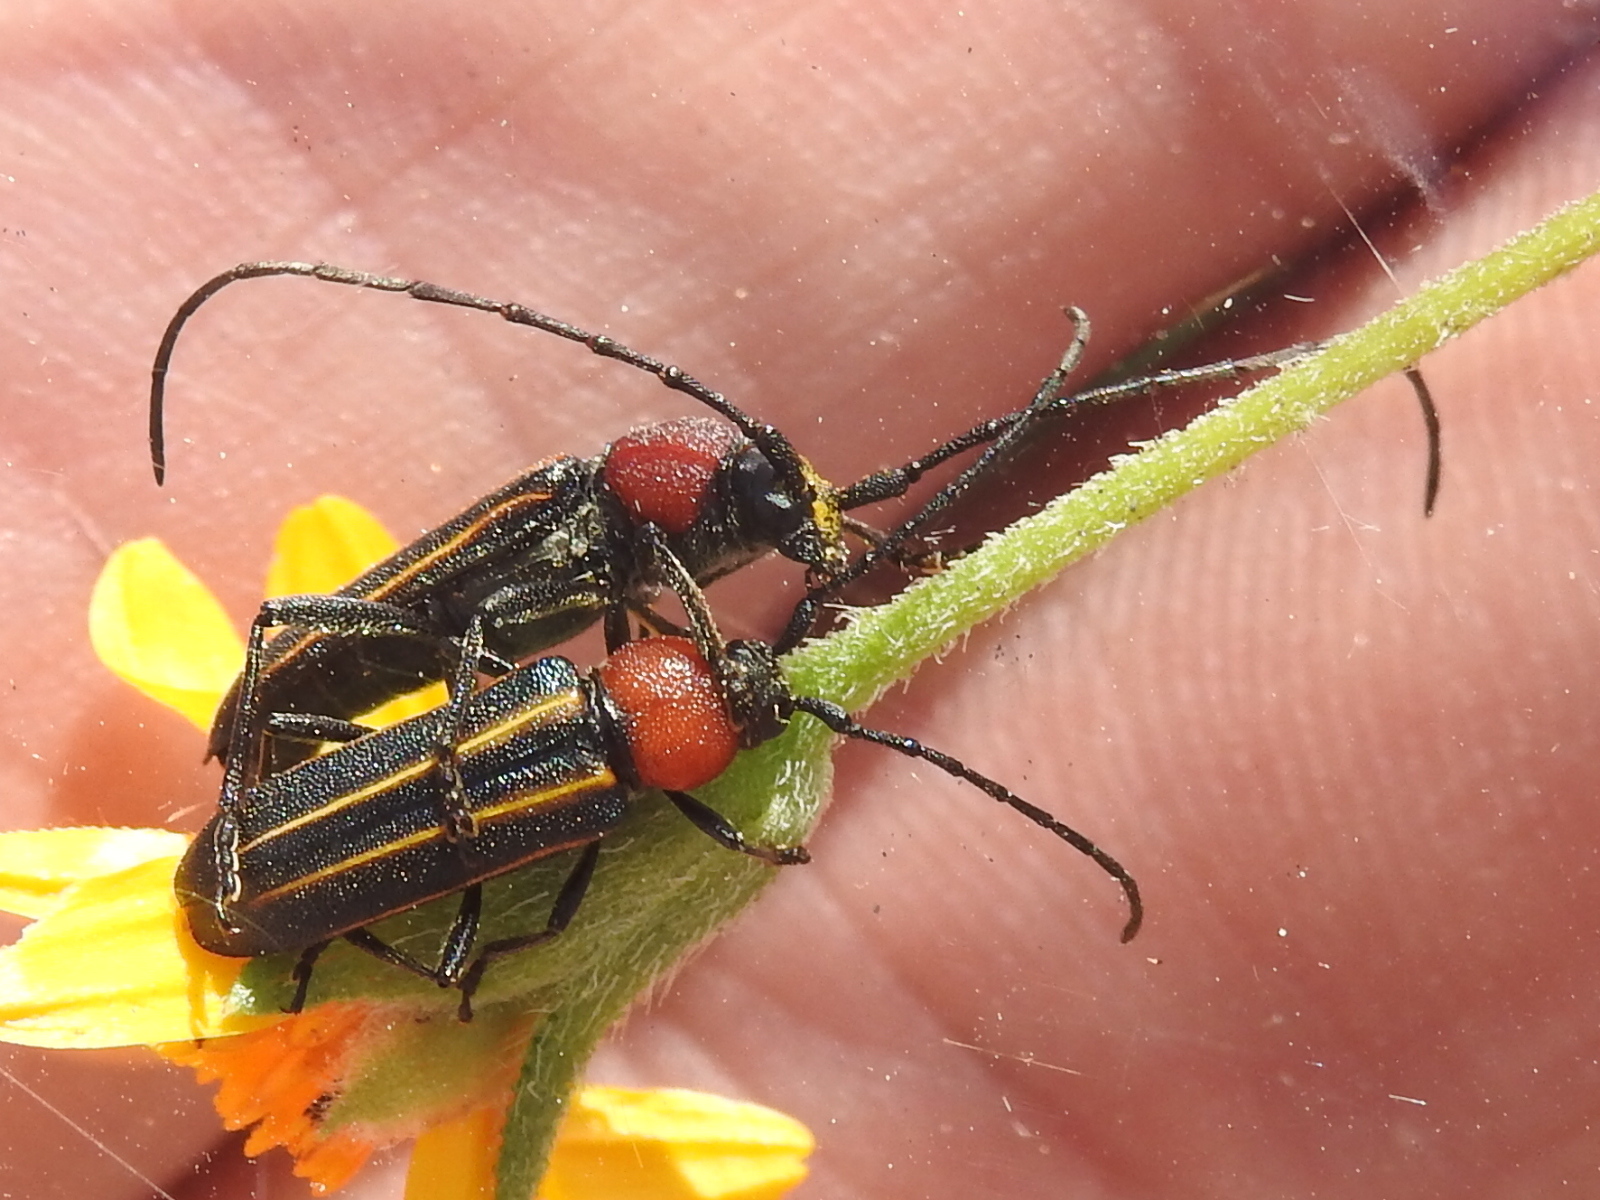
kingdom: Animalia
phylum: Arthropoda
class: Insecta
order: Coleoptera
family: Cerambycidae
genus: Mannophorus
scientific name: Mannophorus laetus
